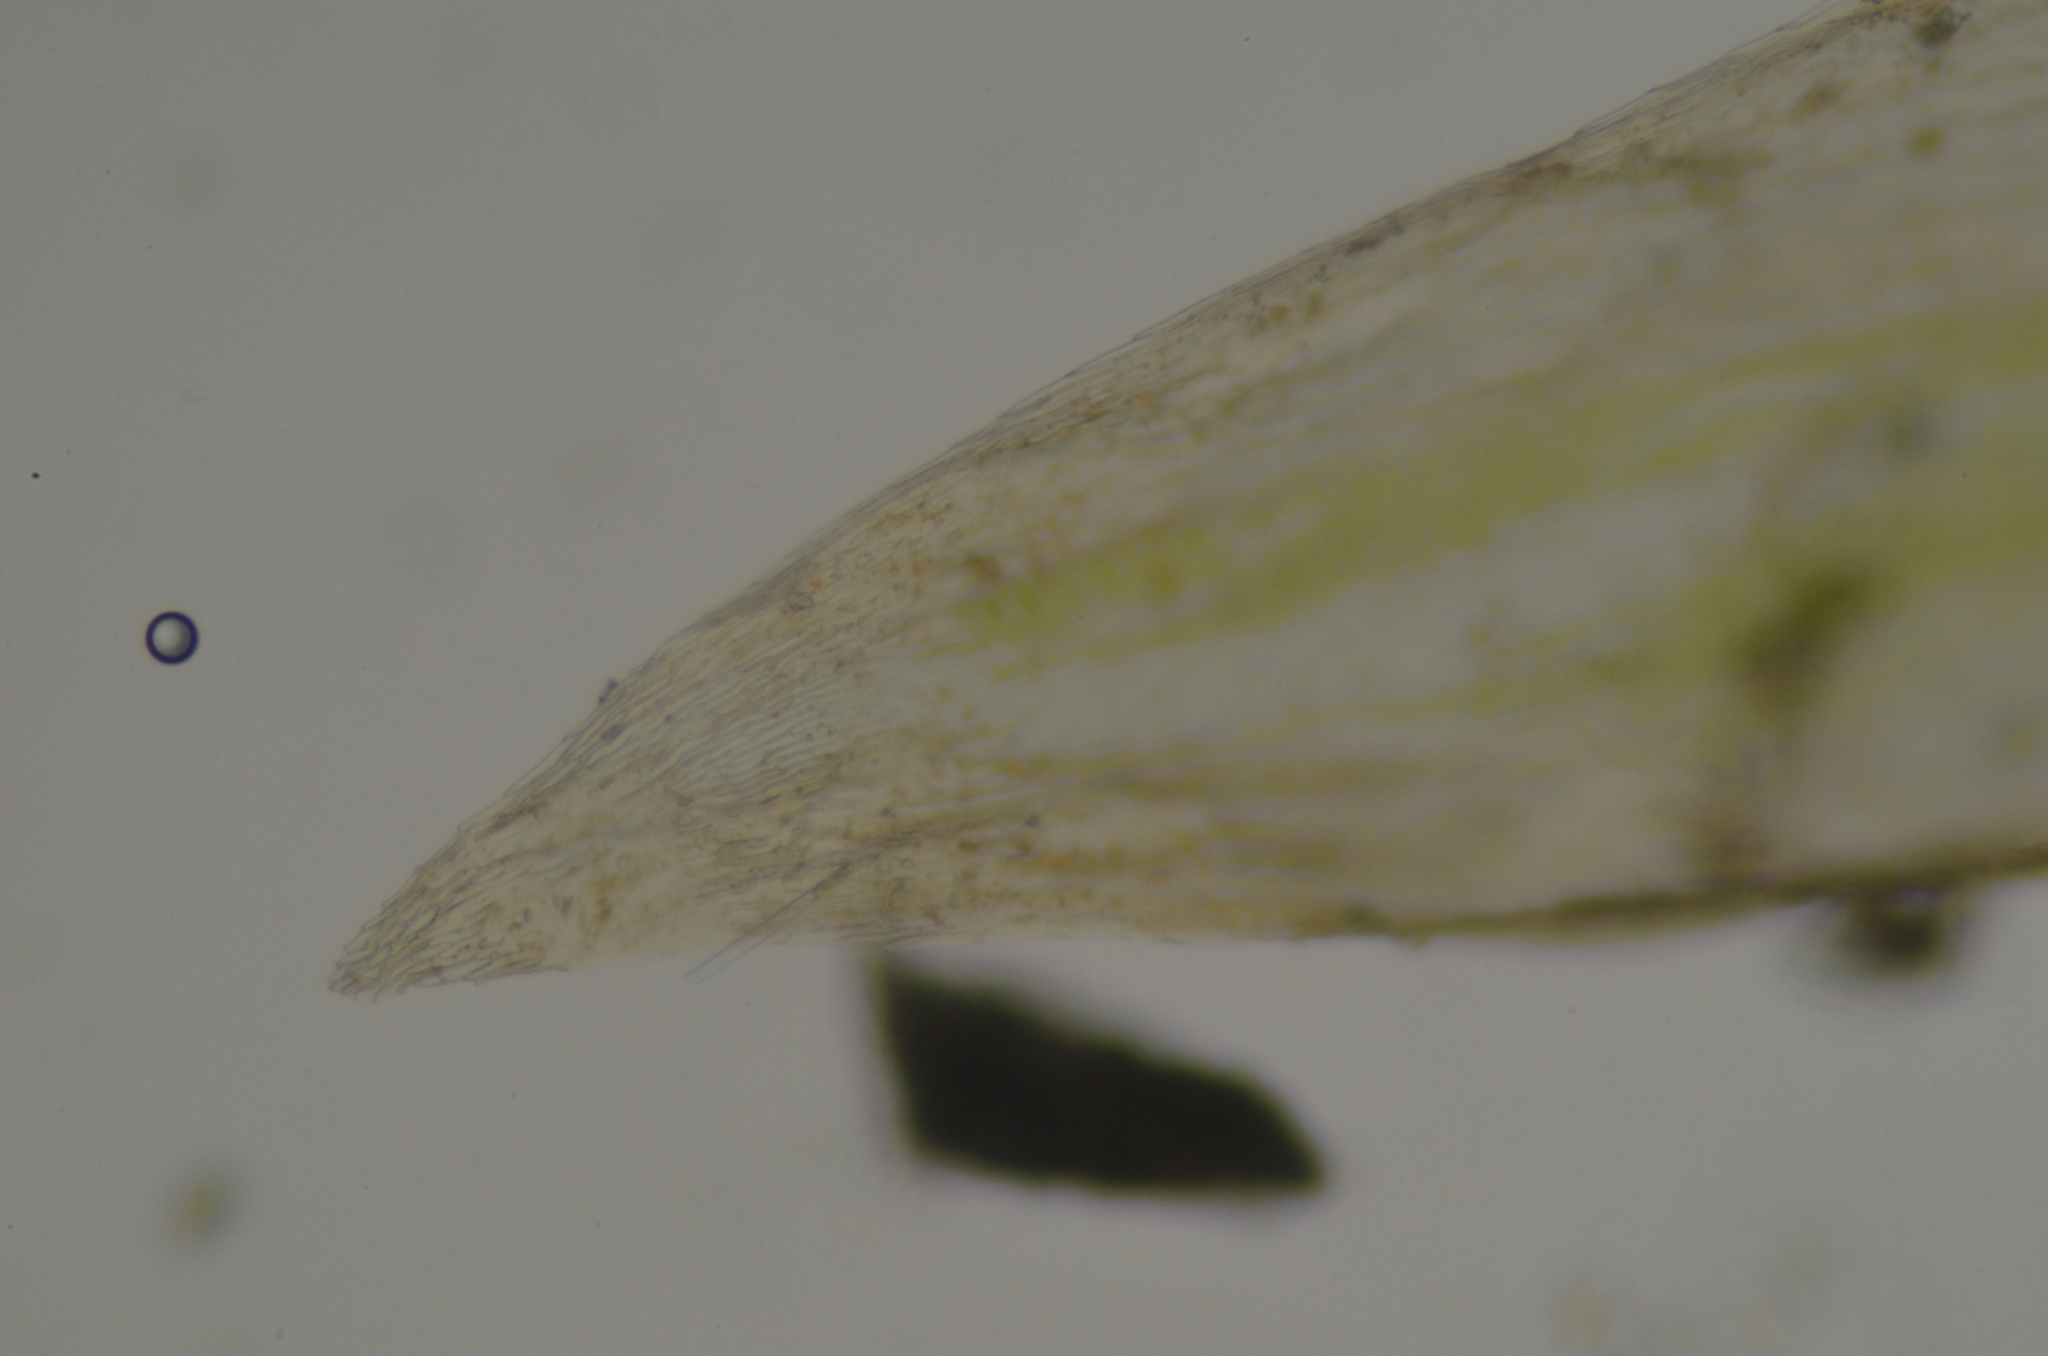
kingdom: Plantae
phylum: Bryophyta
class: Bryopsida
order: Hypnales
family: Scorpidiaceae
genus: Hygrohypnella
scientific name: Hygrohypnella ochracea
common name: Hygrohypnum moss
